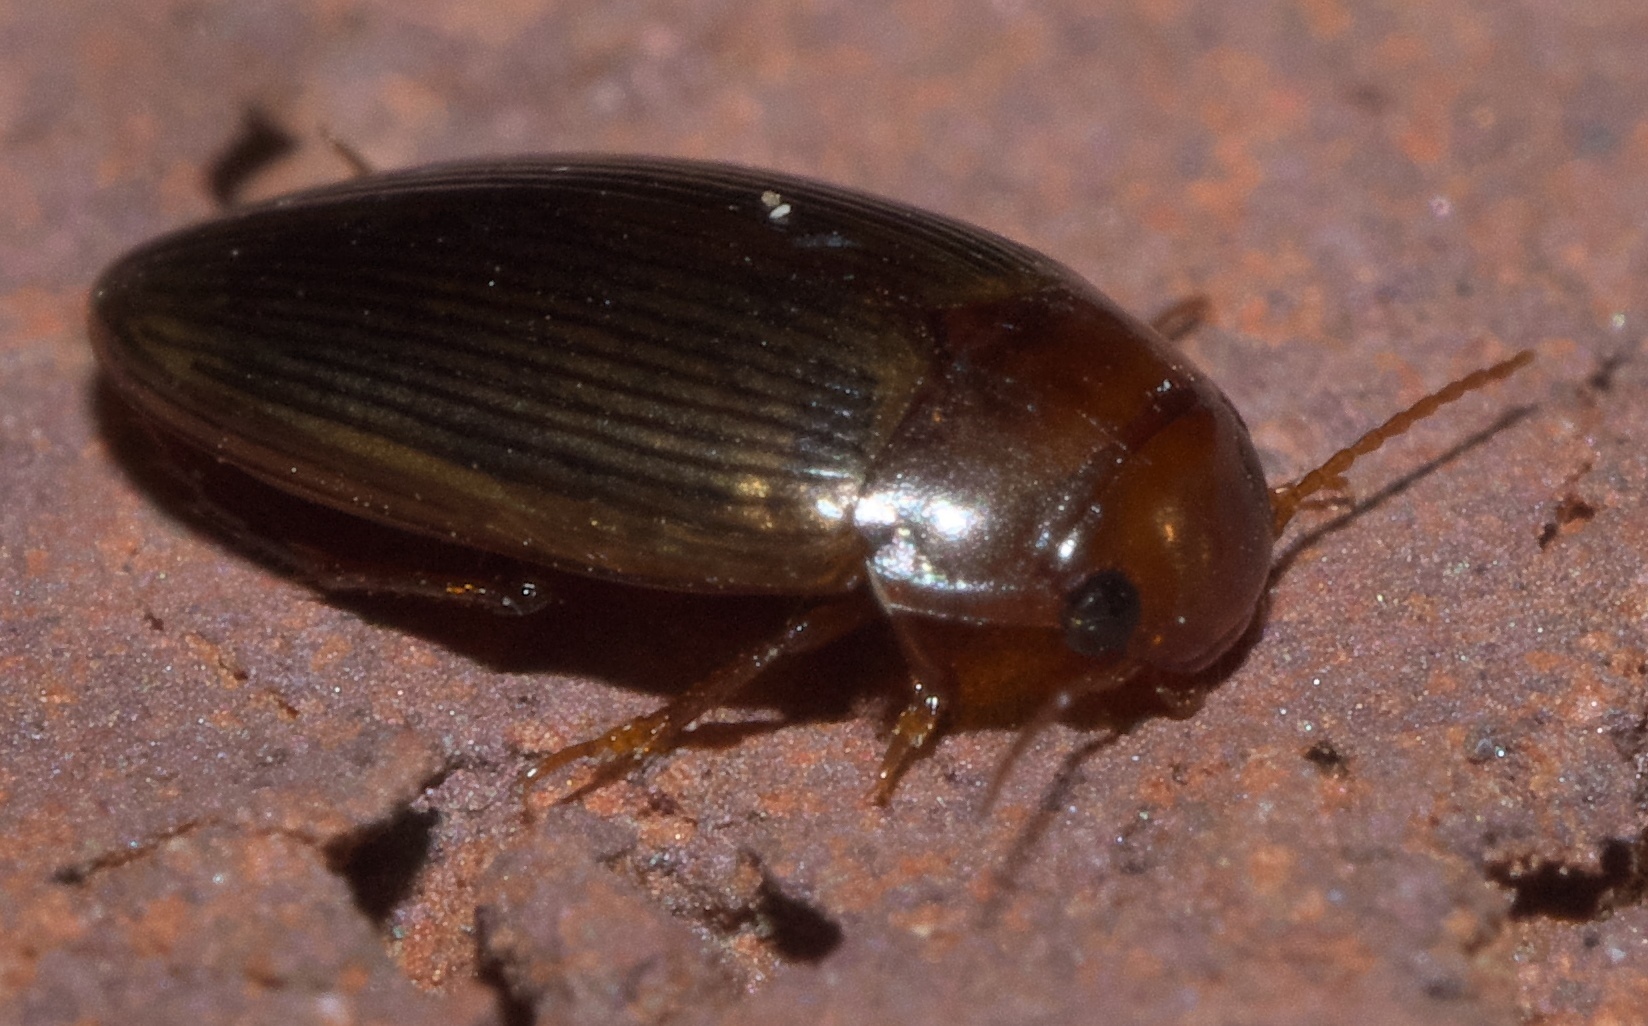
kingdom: Animalia
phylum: Arthropoda
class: Insecta
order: Coleoptera
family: Dytiscidae
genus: Copelatus
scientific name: Copelatus glyphicus
